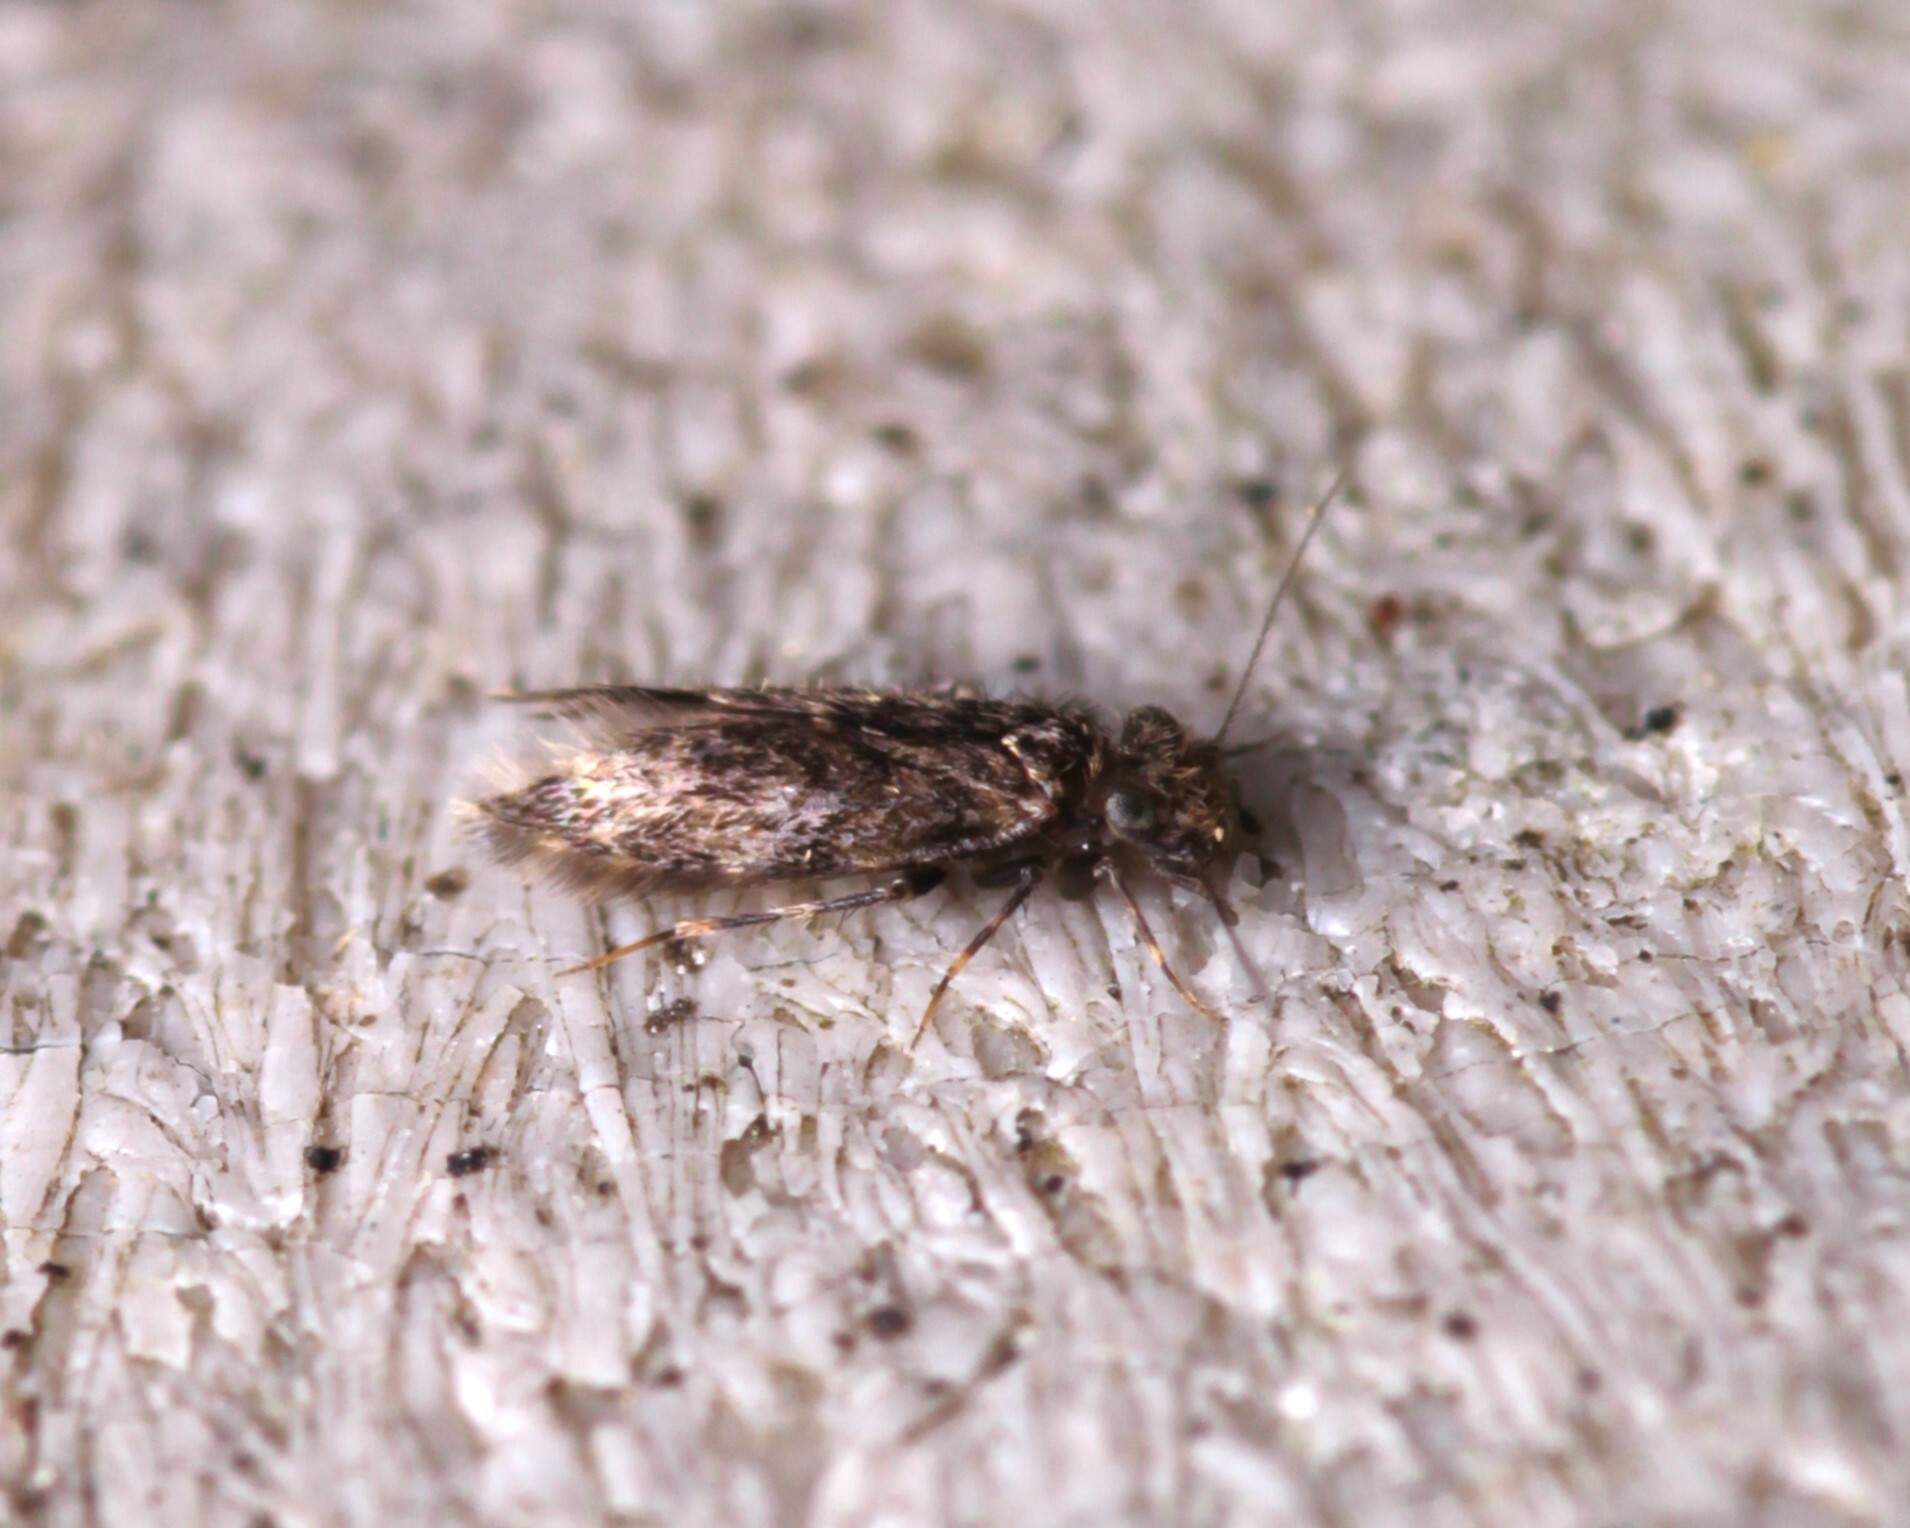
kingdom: Animalia
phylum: Arthropoda
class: Insecta
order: Psocodea
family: Lepidopsocidae
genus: Echmepteryx
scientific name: Echmepteryx hageni
